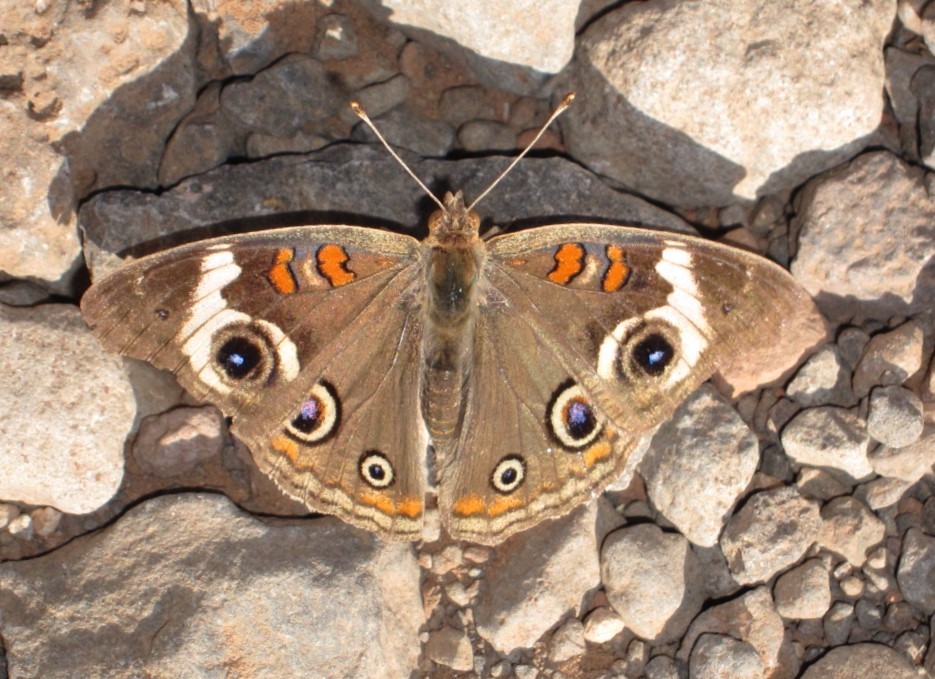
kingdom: Animalia
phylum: Arthropoda
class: Insecta
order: Lepidoptera
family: Nymphalidae
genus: Junonia
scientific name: Junonia grisea
